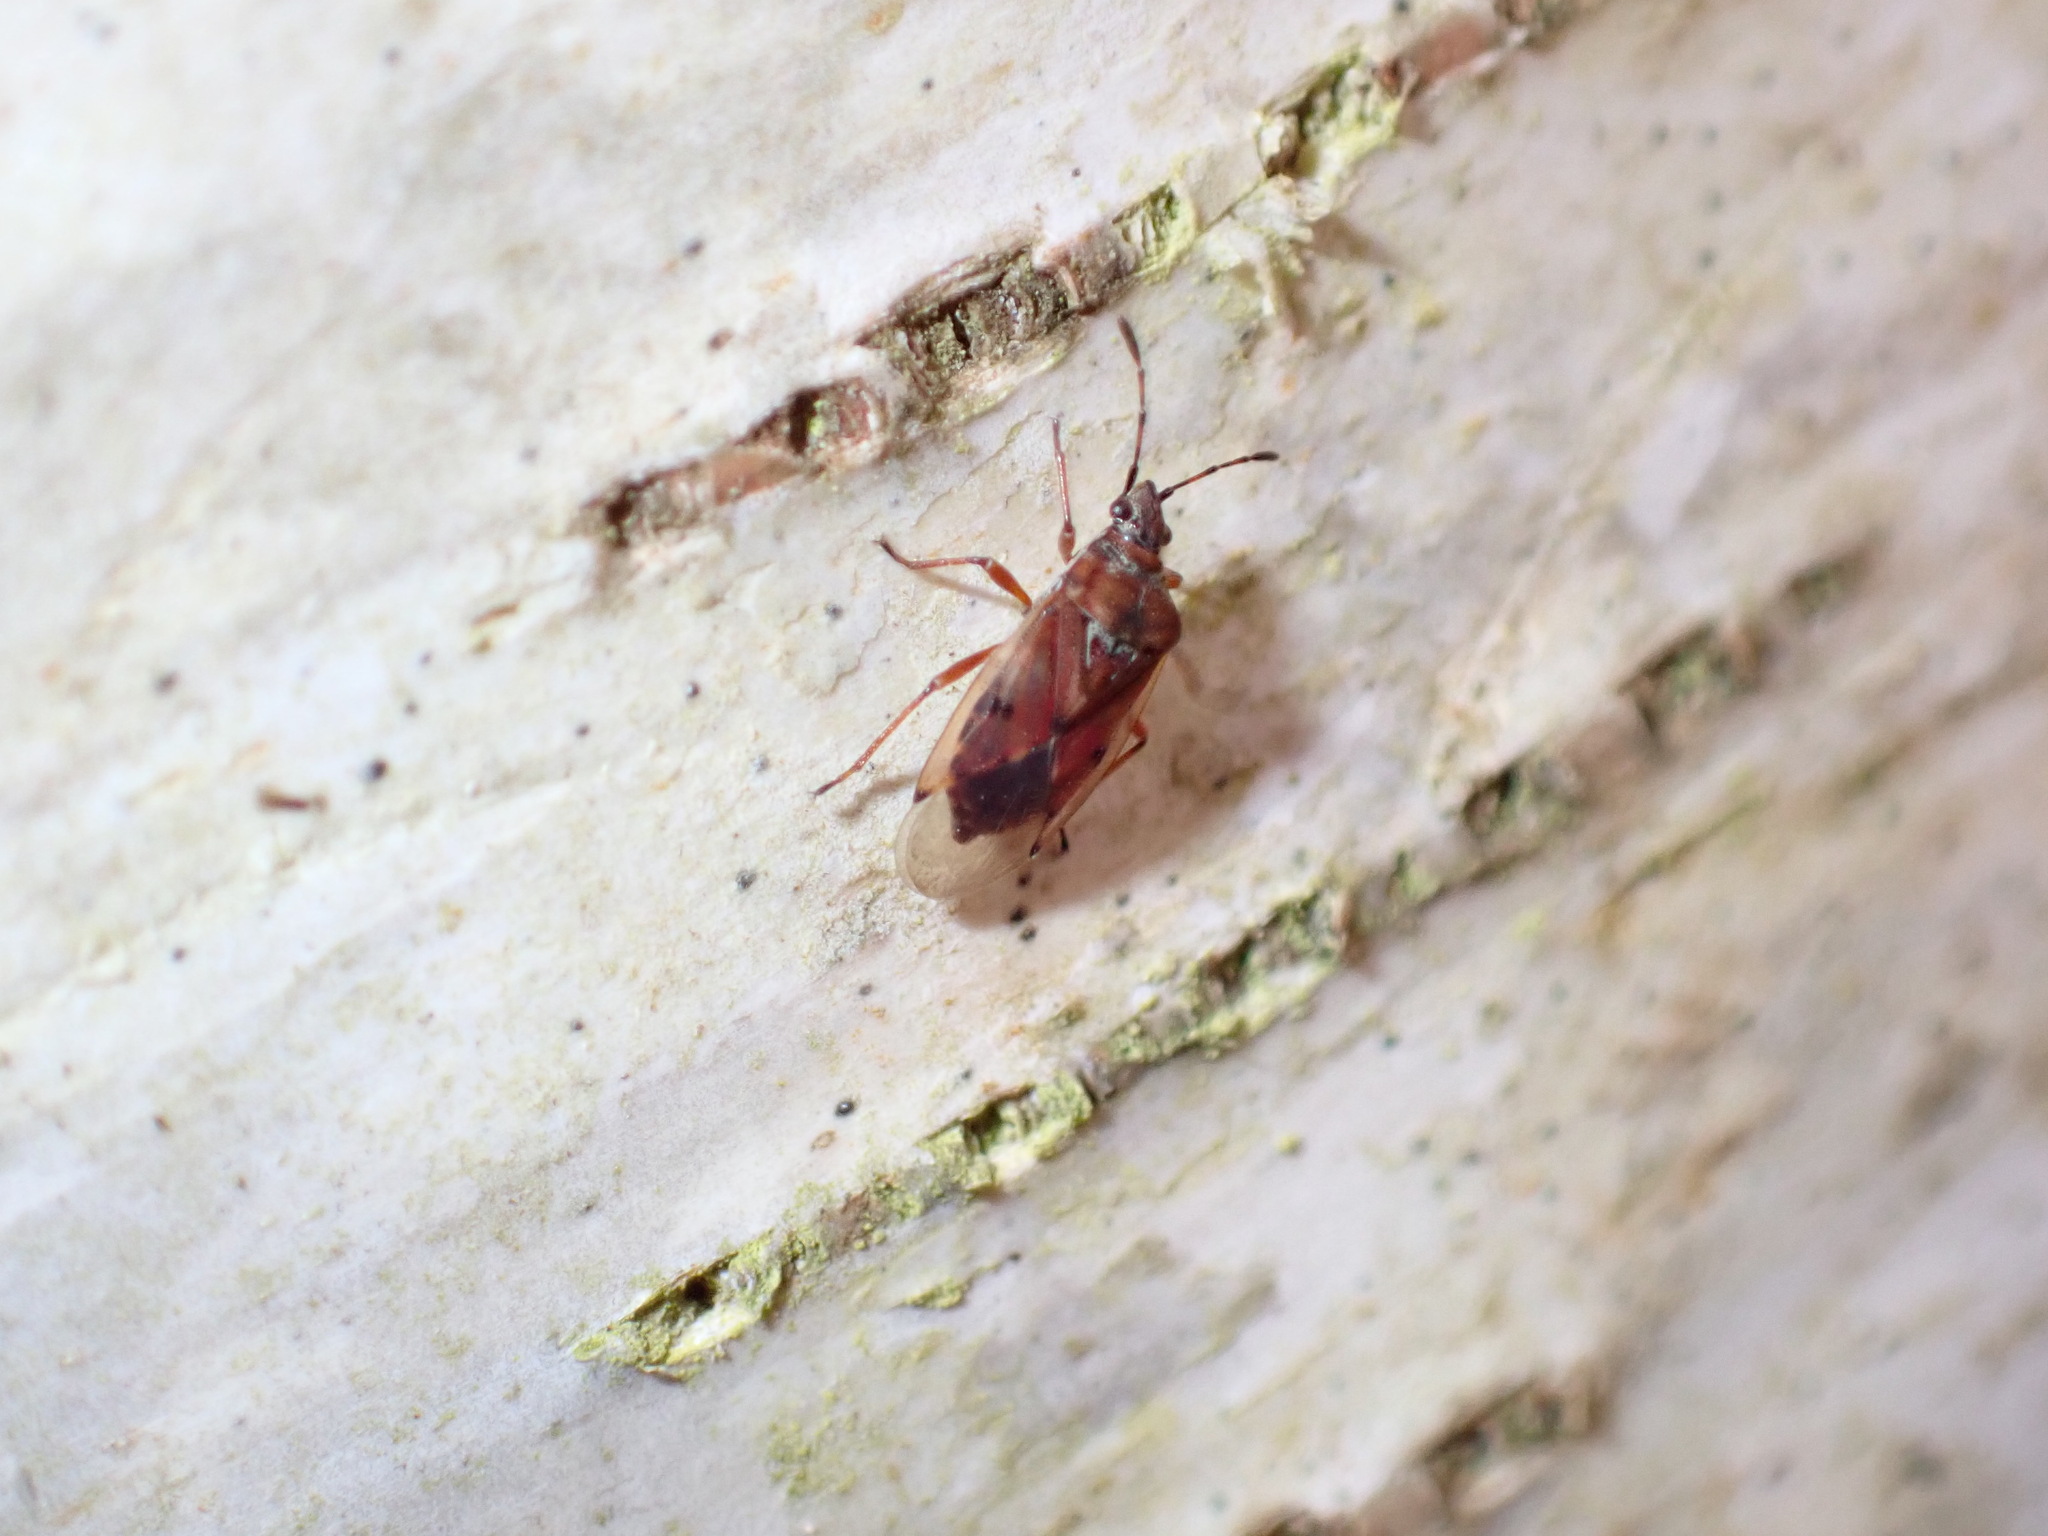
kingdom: Animalia
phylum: Arthropoda
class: Insecta
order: Hemiptera
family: Lygaeidae
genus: Kleidocerys
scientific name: Kleidocerys resedae
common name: Birch catkin bug
